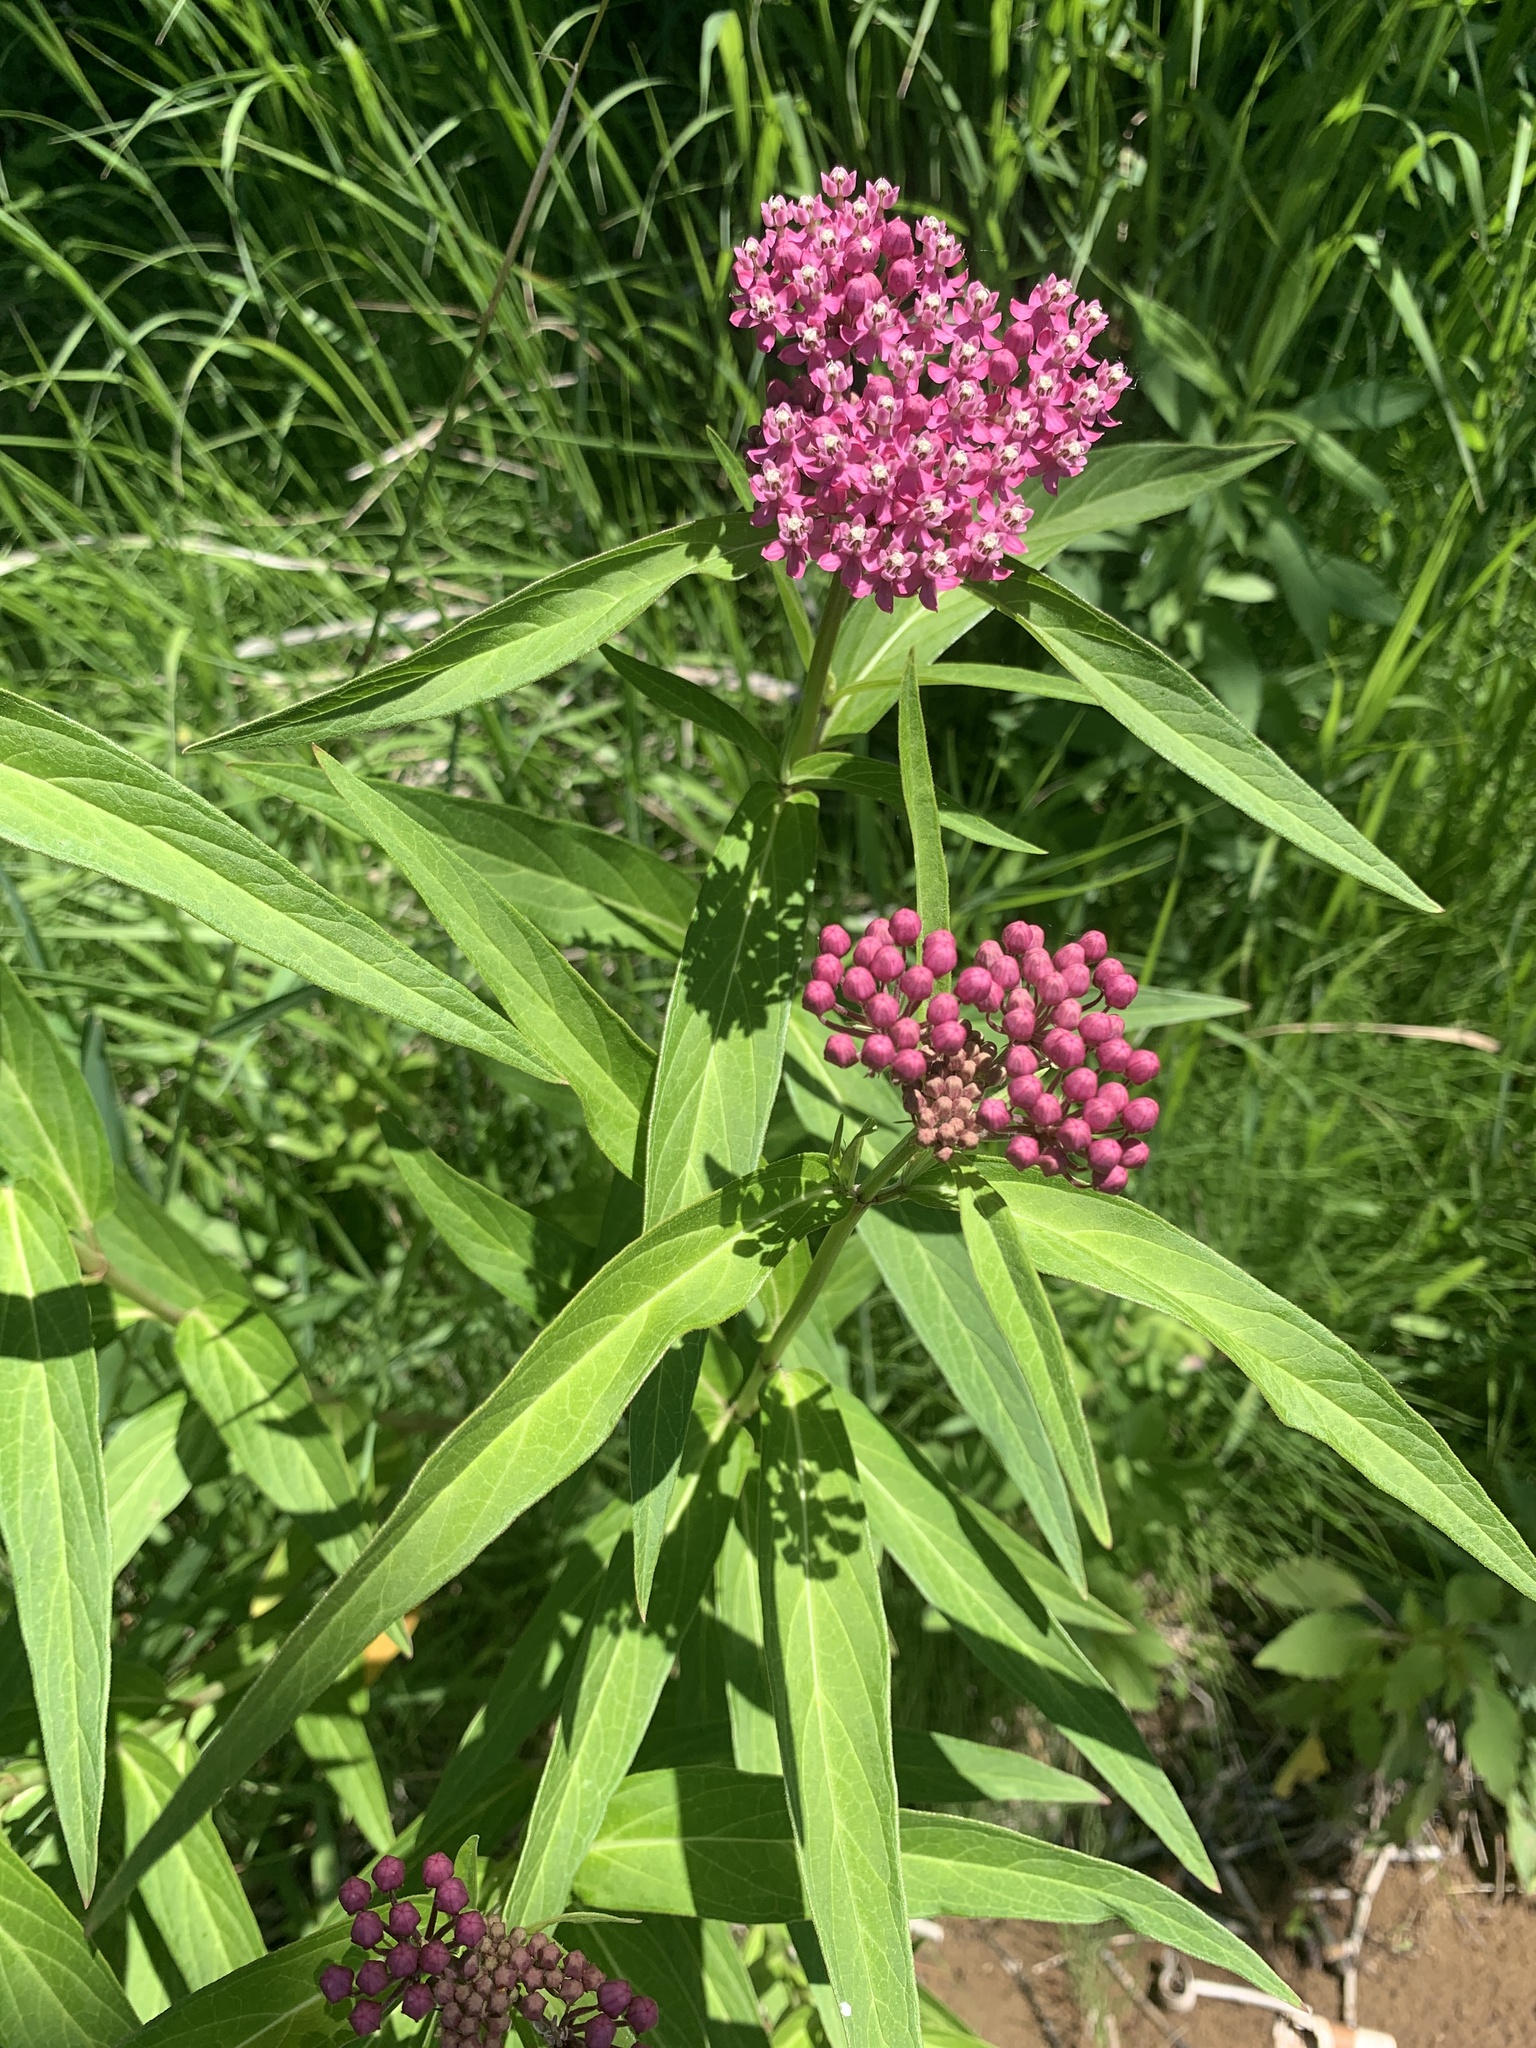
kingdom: Plantae
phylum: Tracheophyta
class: Magnoliopsida
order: Gentianales
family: Apocynaceae
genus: Asclepias
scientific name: Asclepias incarnata
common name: Swamp milkweed
